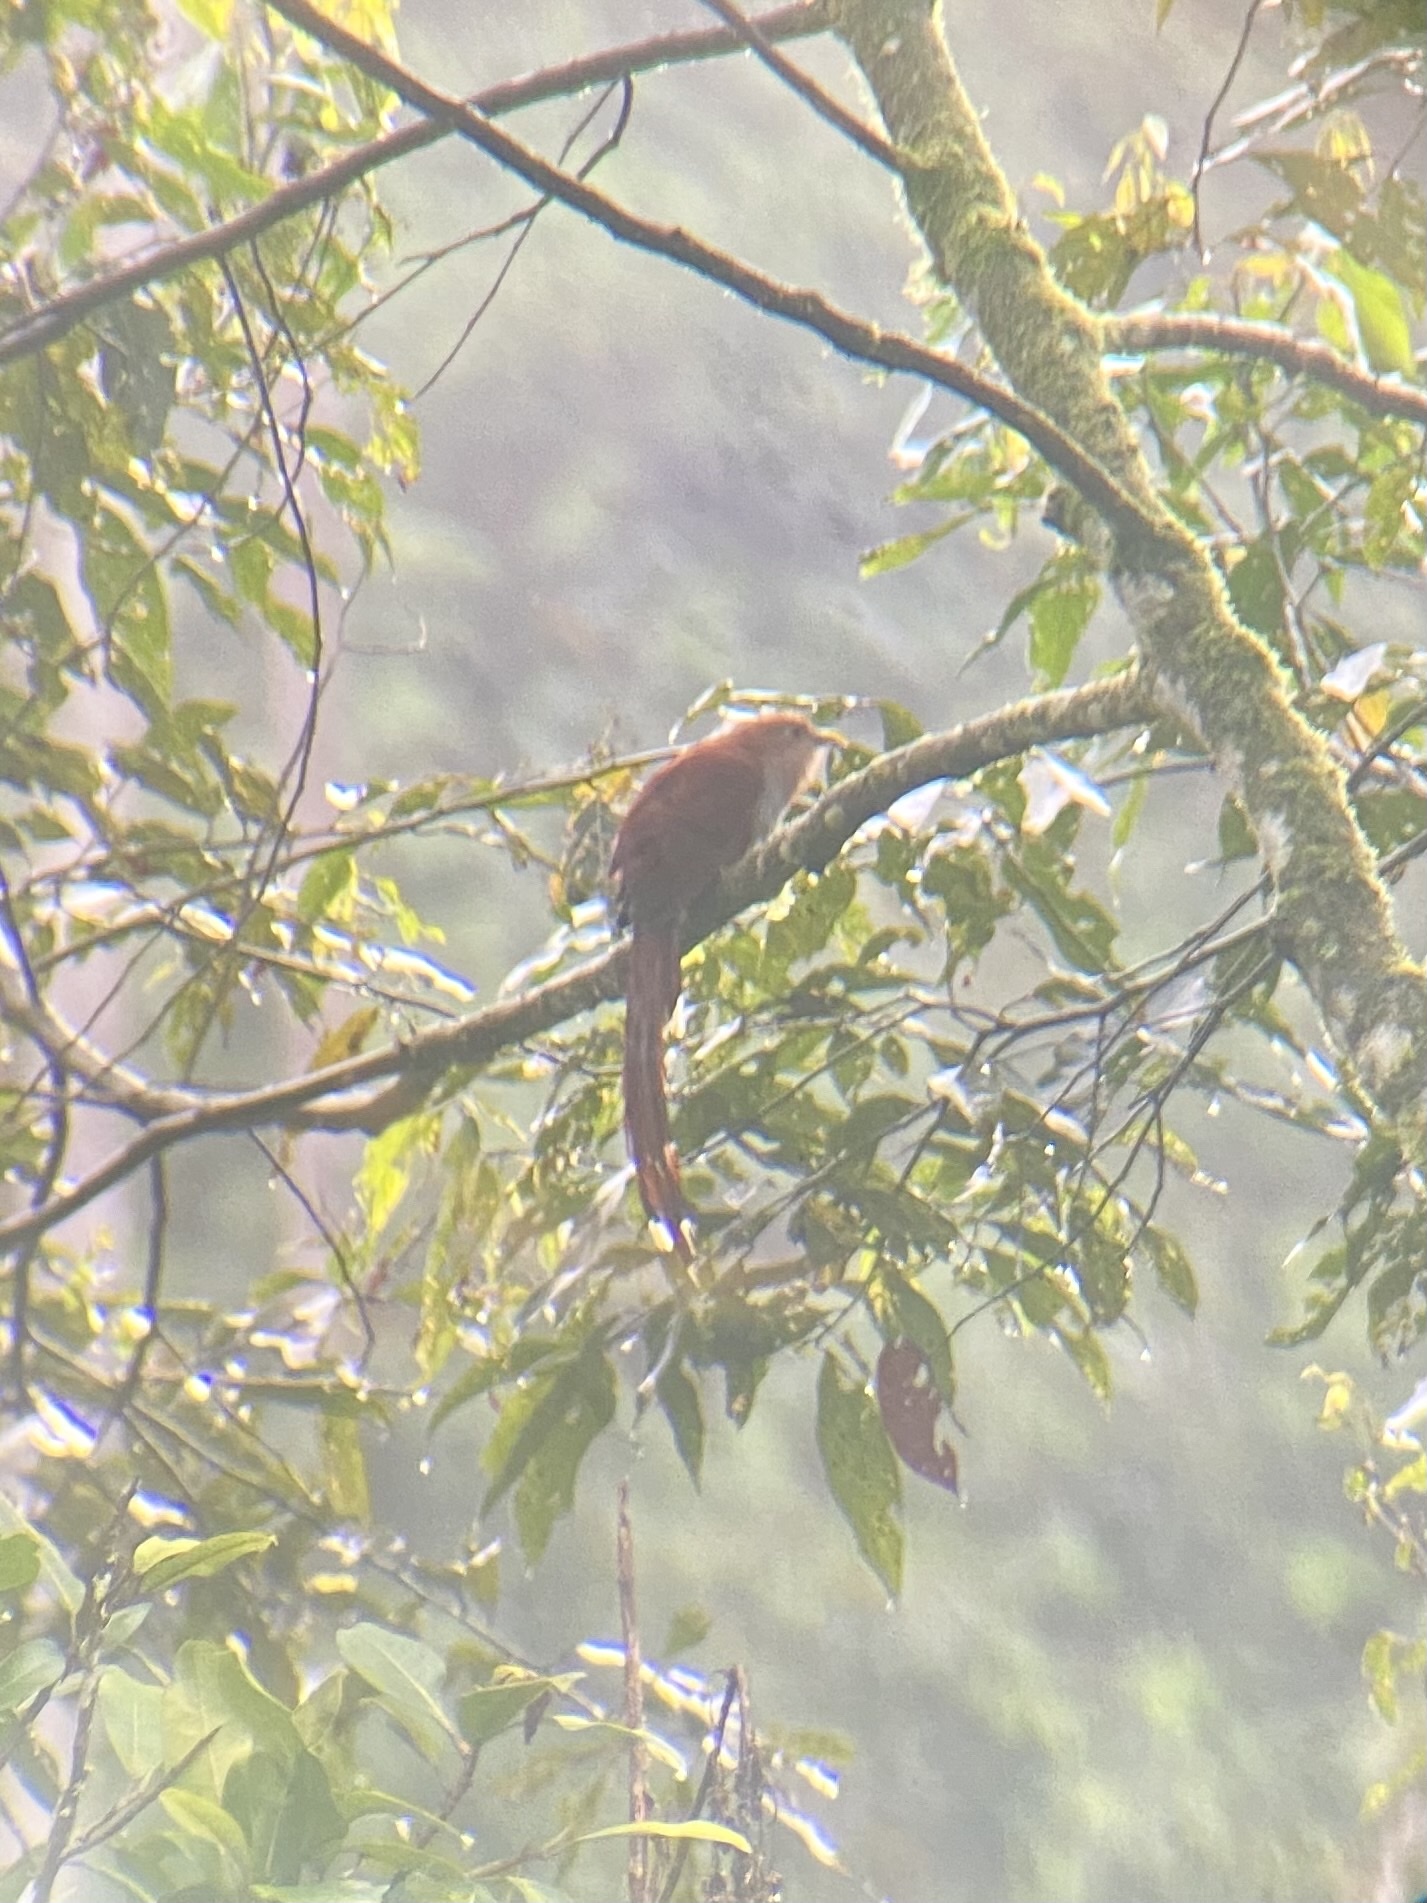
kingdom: Animalia
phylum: Chordata
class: Aves
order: Cuculiformes
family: Cuculidae
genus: Piaya
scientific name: Piaya cayana
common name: Squirrel cuckoo
